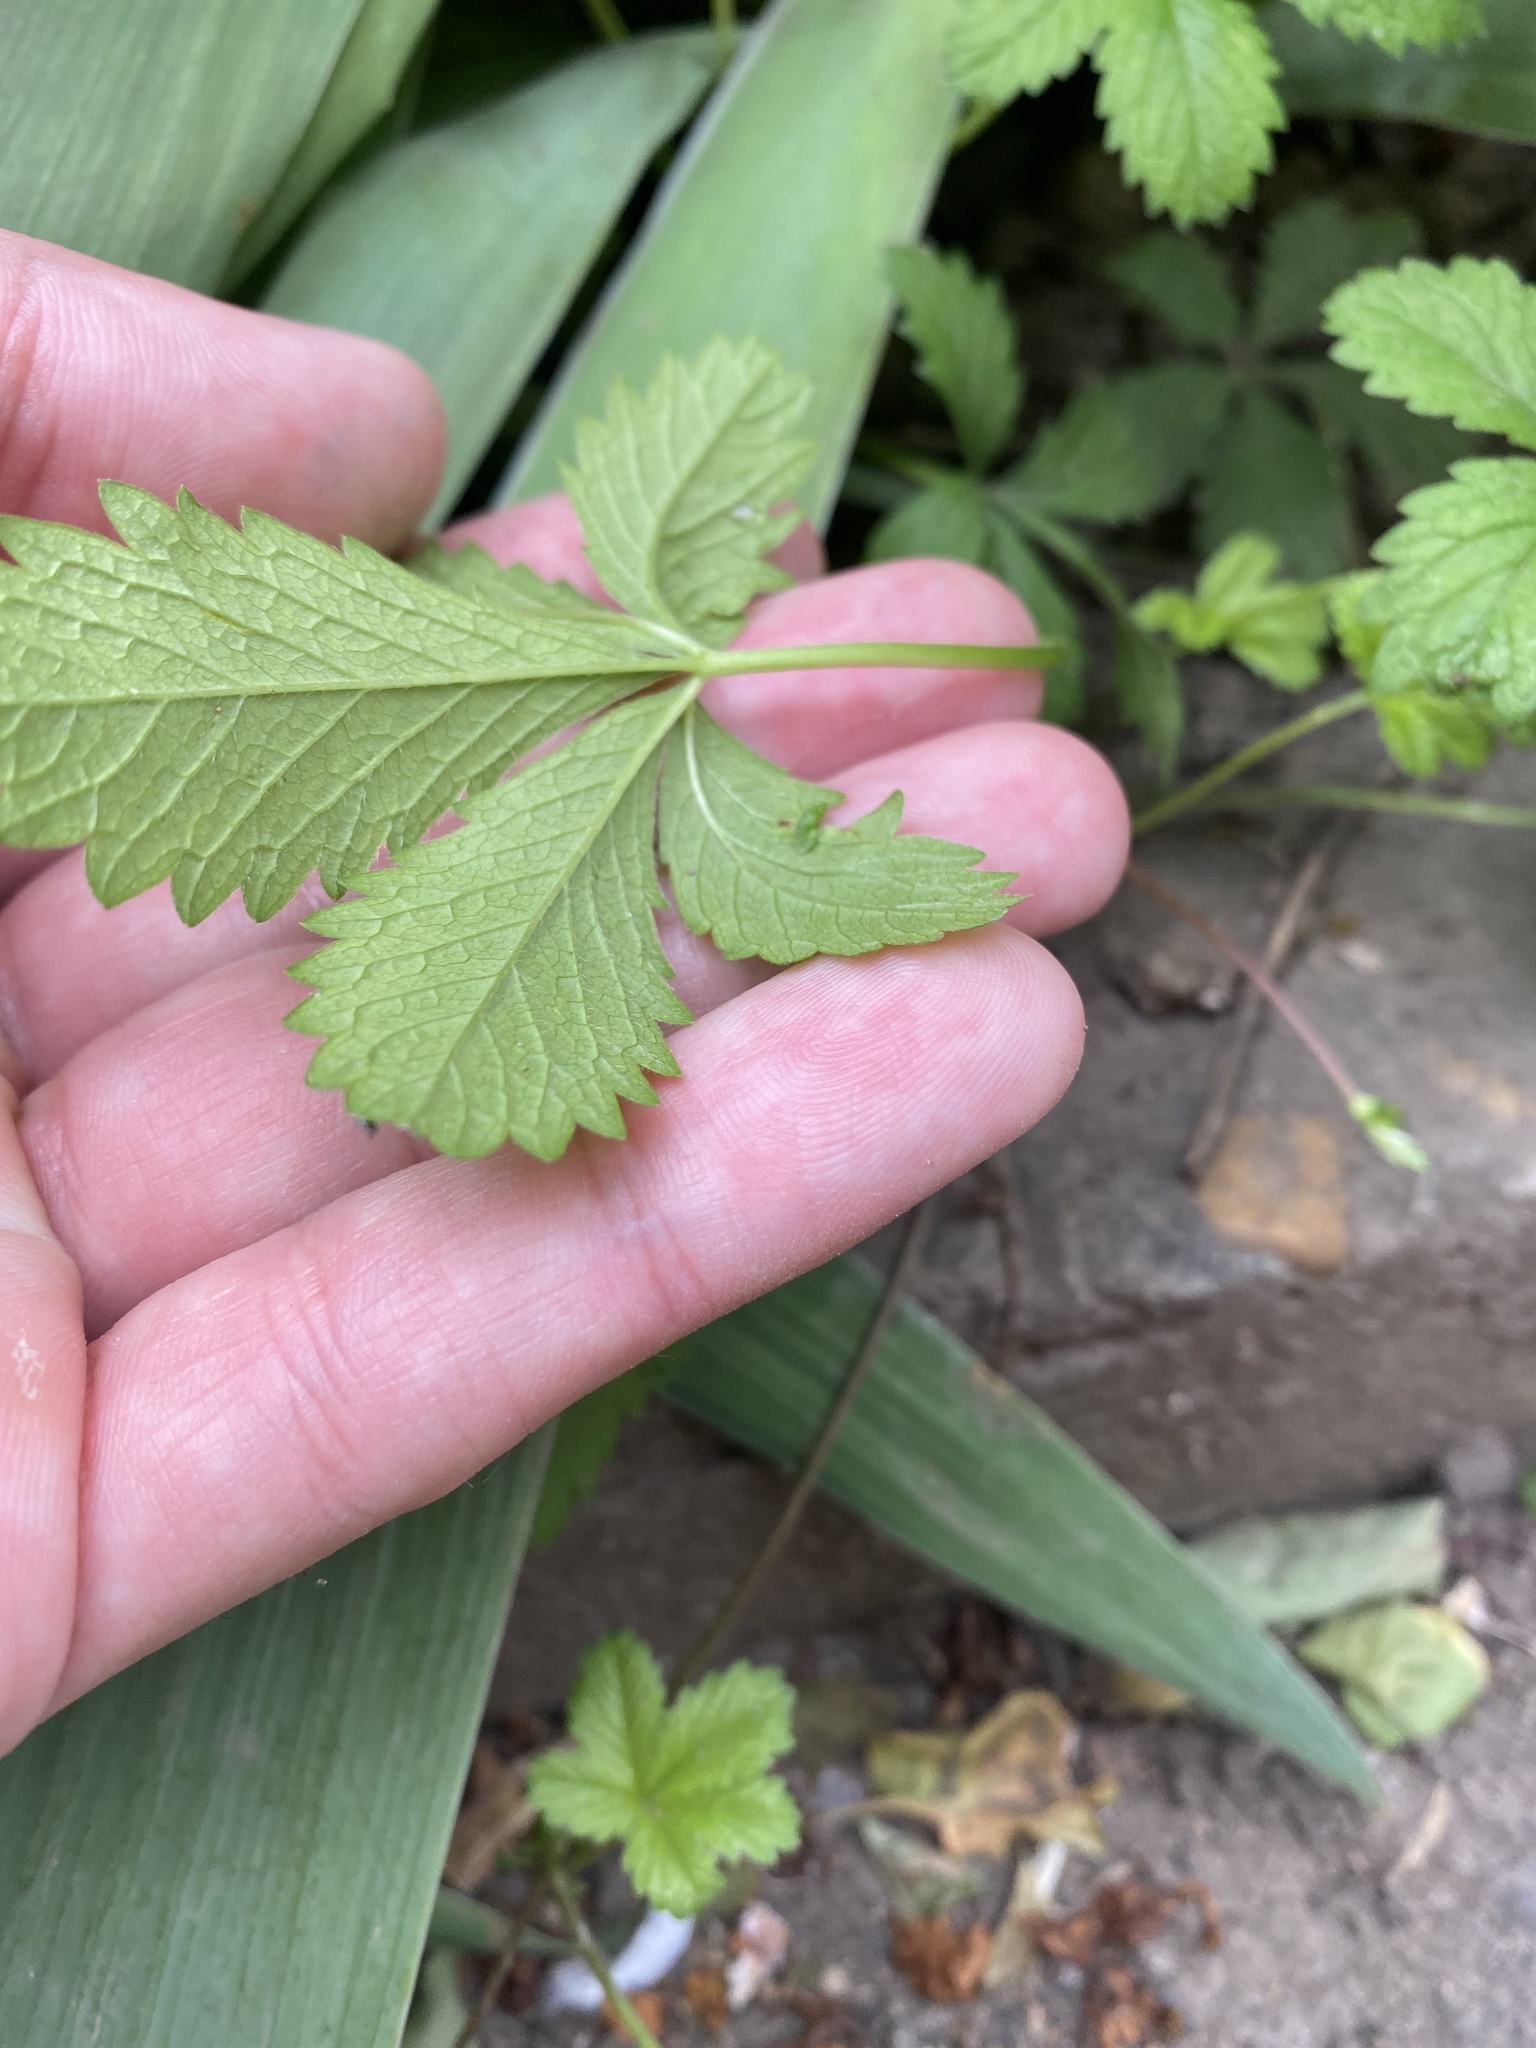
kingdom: Plantae
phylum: Tracheophyta
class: Magnoliopsida
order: Rosales
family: Rosaceae
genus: Potentilla
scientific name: Potentilla reptans
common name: Creeping cinquefoil
